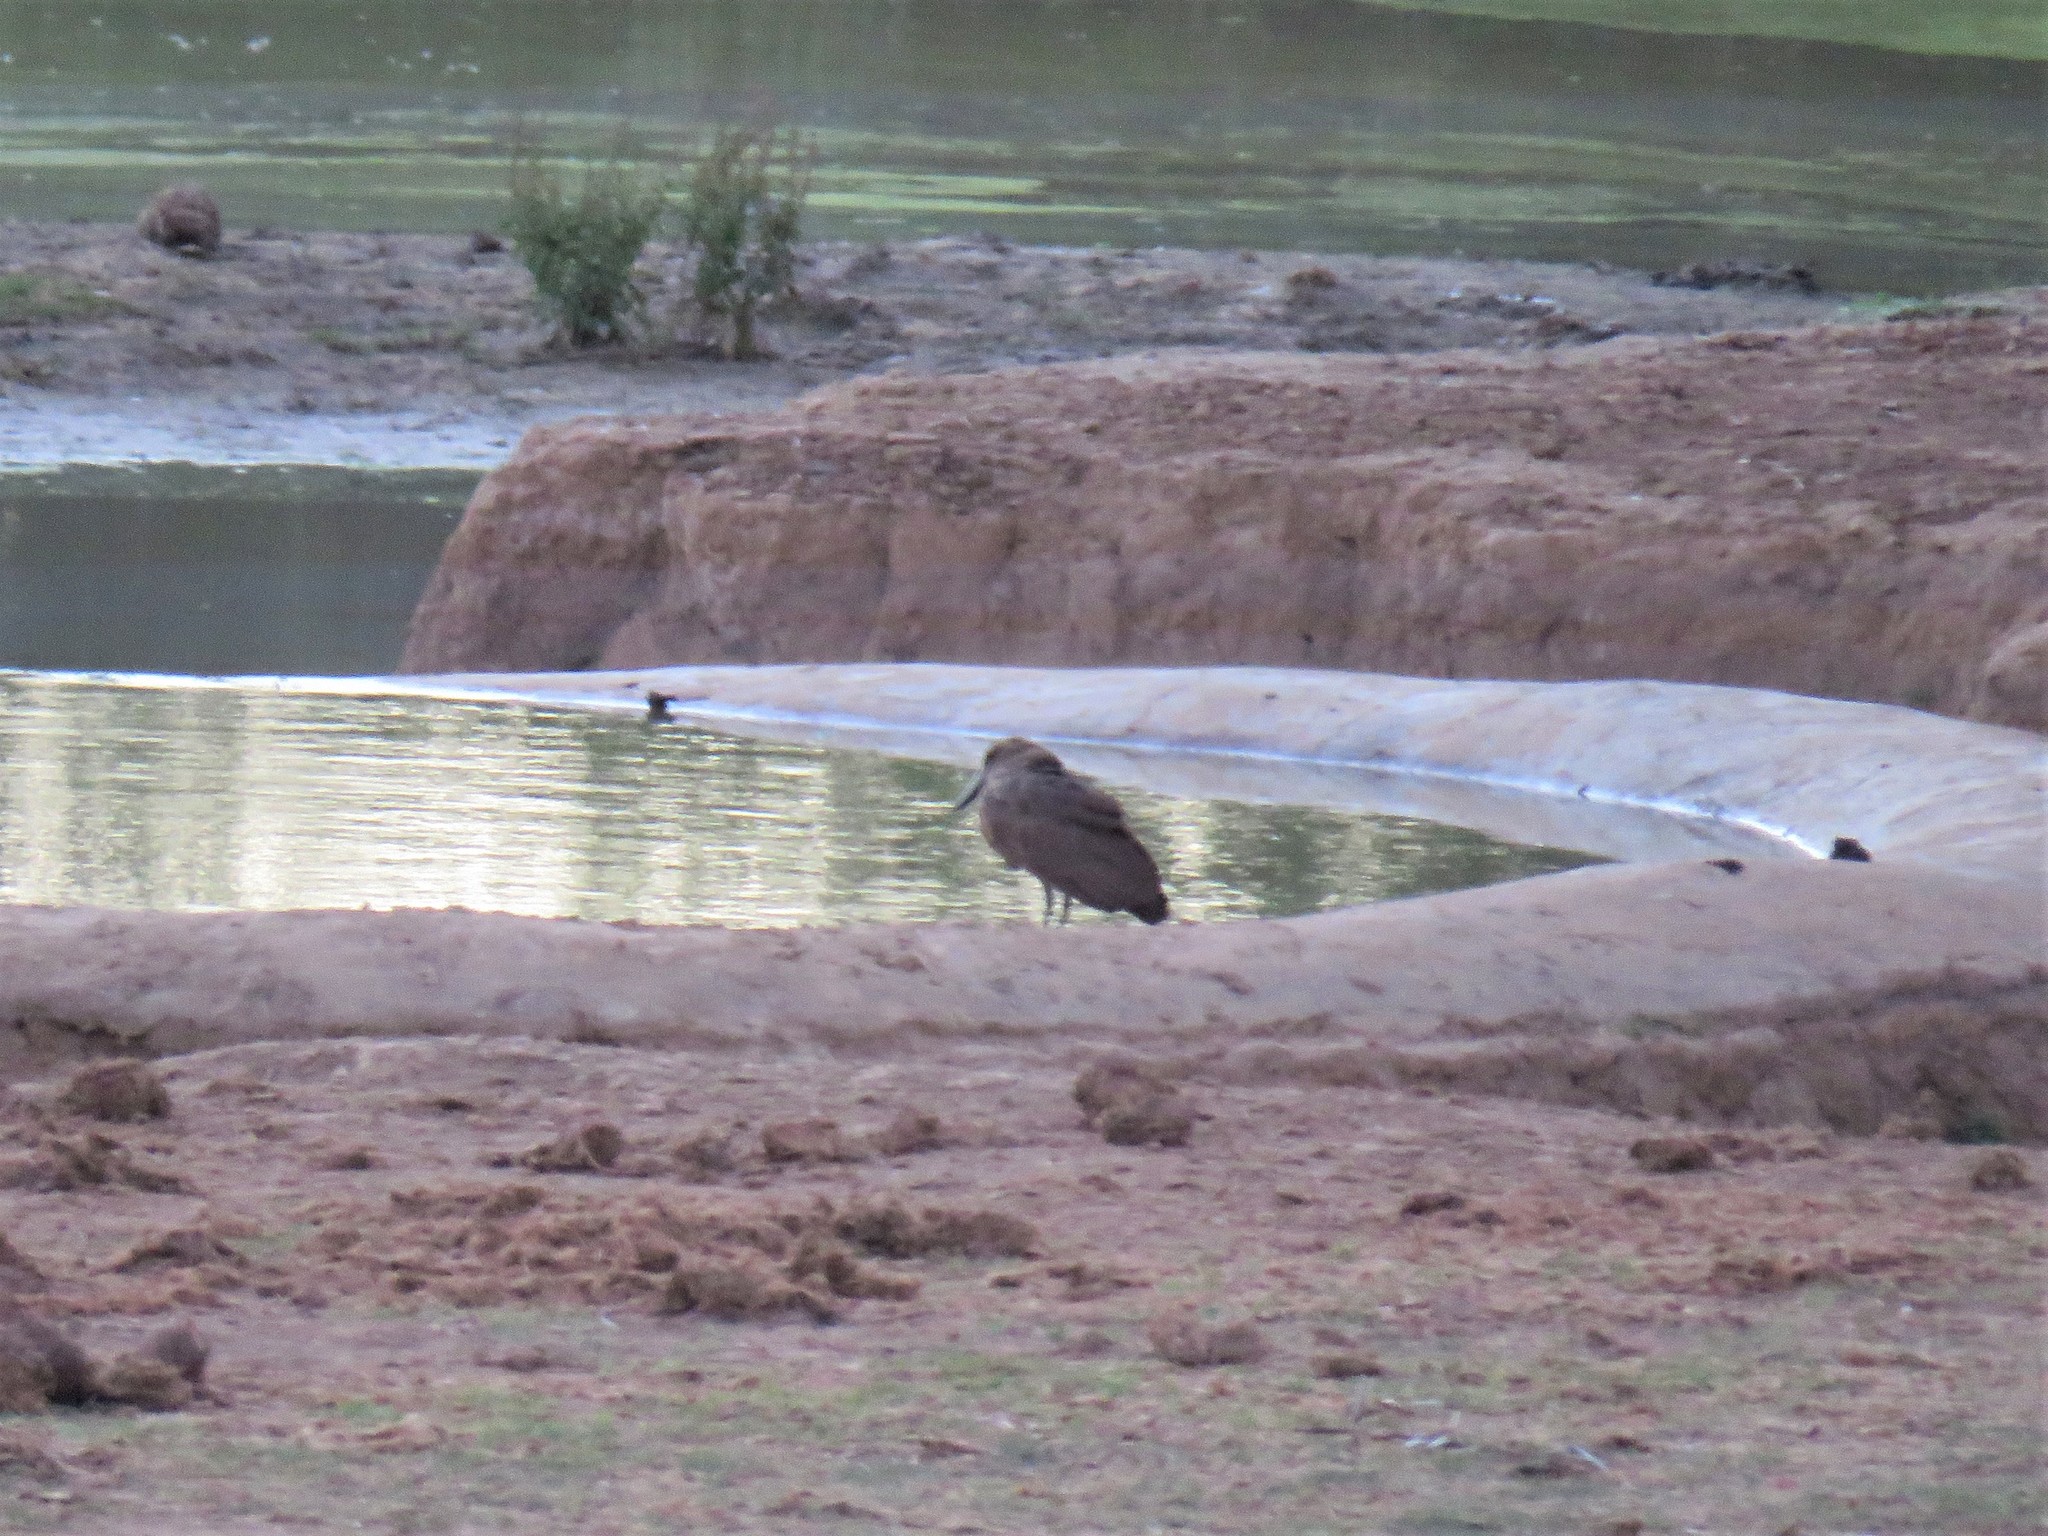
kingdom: Animalia
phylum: Chordata
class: Aves
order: Pelecaniformes
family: Scopidae
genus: Scopus
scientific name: Scopus umbretta
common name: Hamerkop
